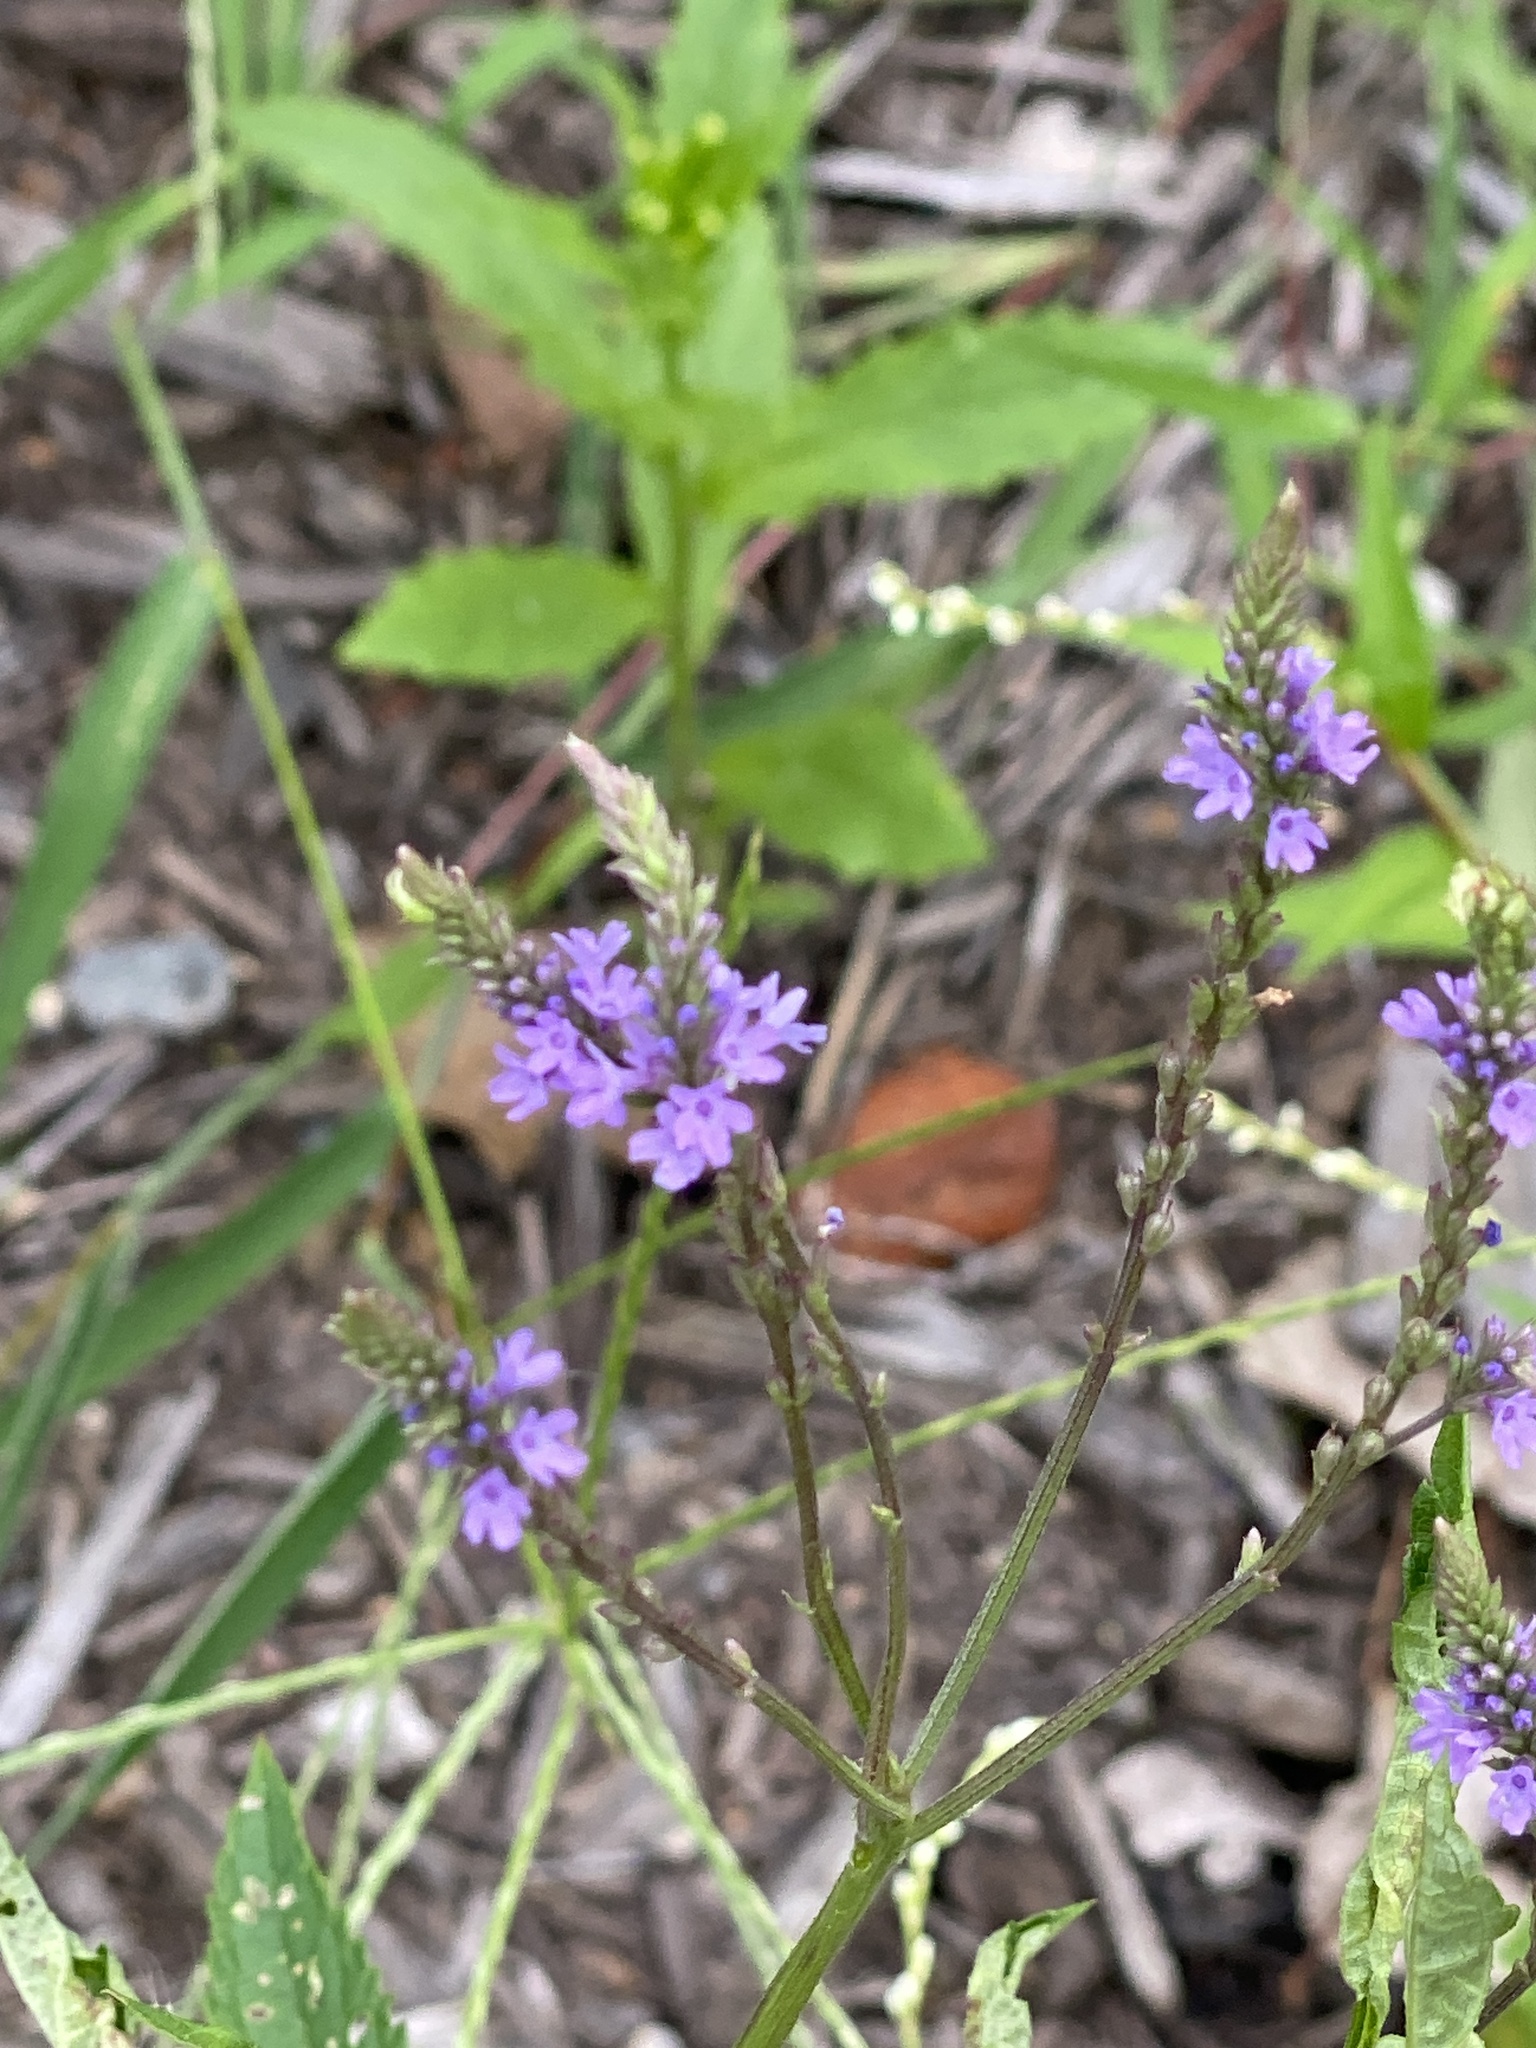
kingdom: Plantae
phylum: Tracheophyta
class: Magnoliopsida
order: Lamiales
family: Verbenaceae
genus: Verbena
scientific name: Verbena hastata
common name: American blue vervain
